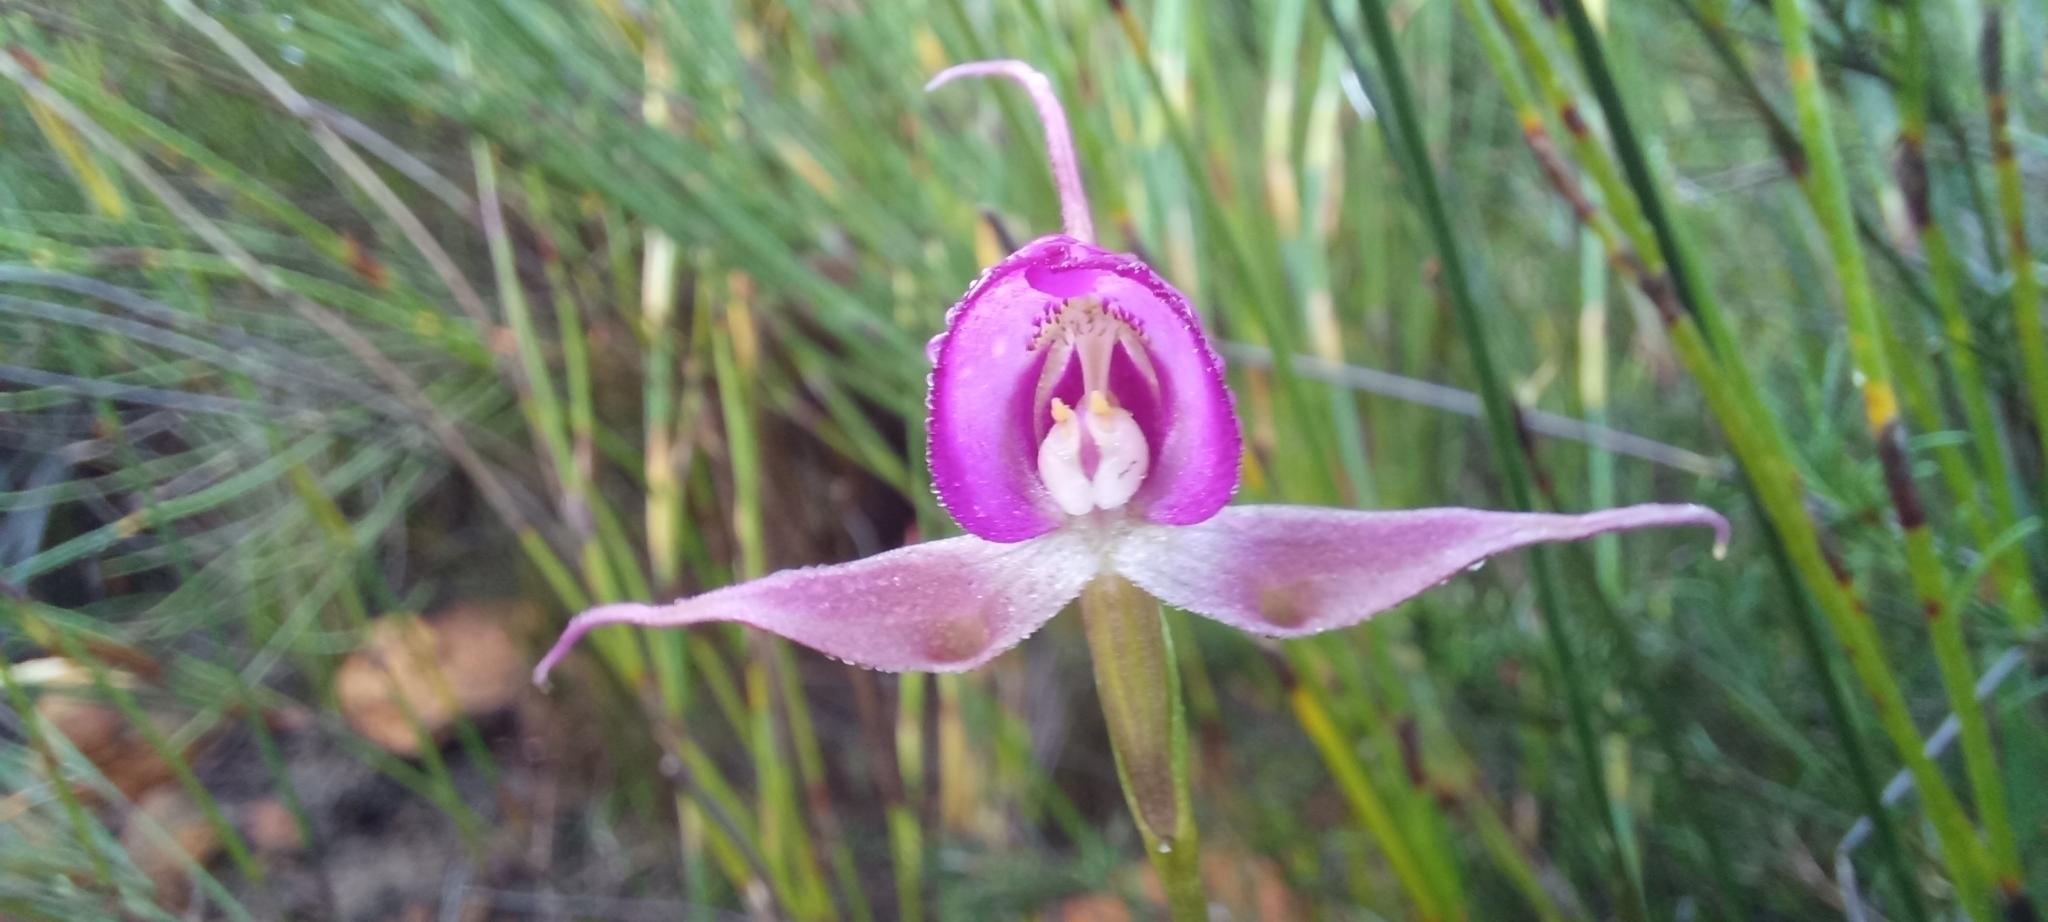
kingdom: Plantae
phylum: Tracheophyta
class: Liliopsida
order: Asparagales
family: Orchidaceae
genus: Disperis
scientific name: Disperis capensis
